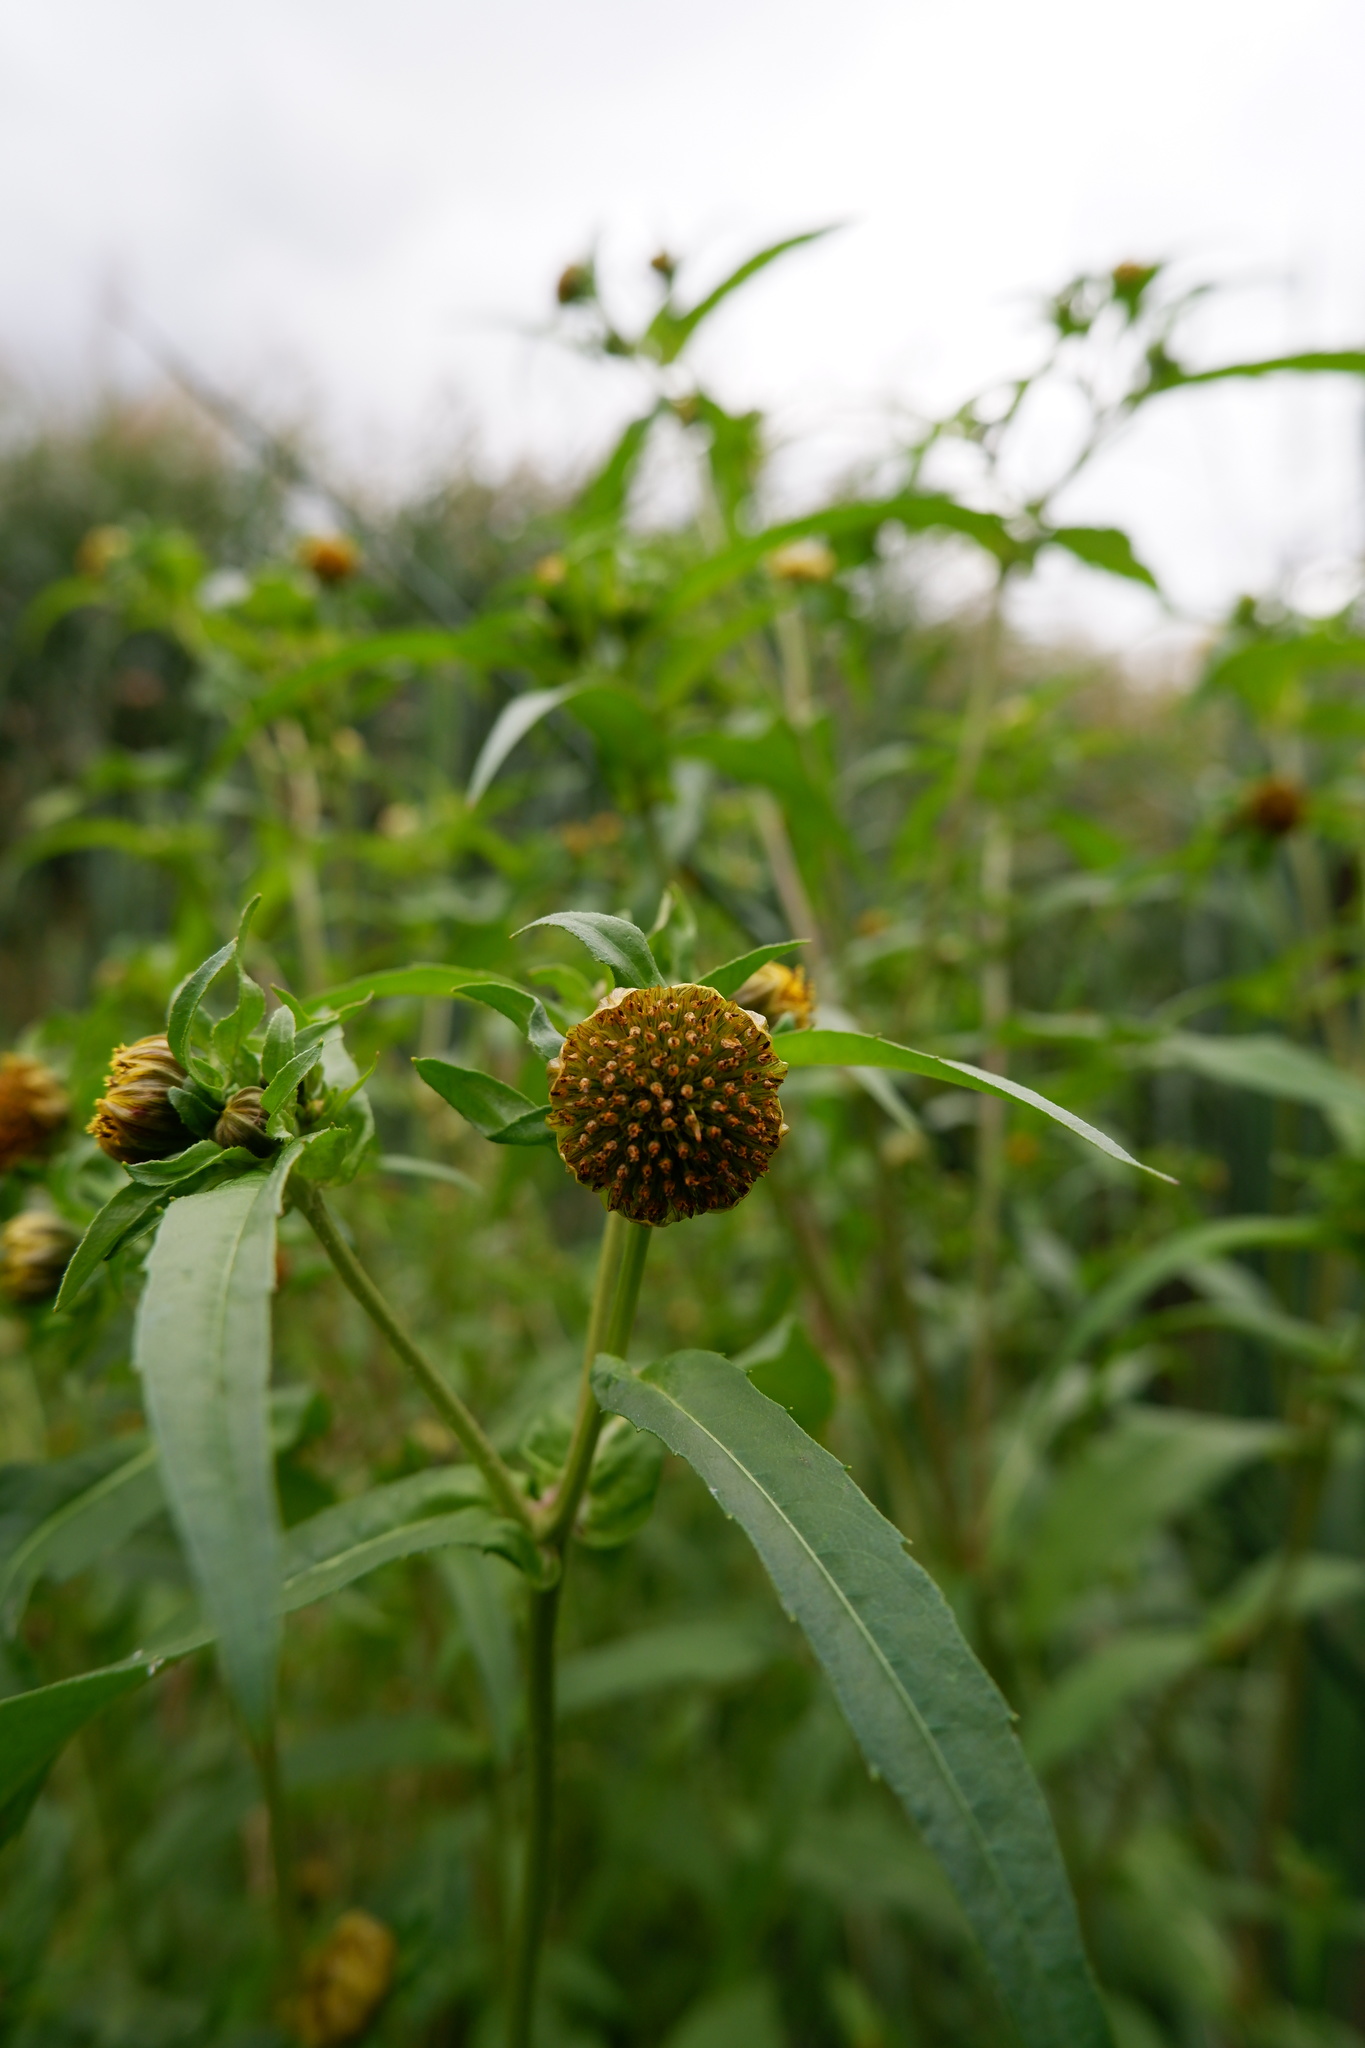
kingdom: Plantae
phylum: Tracheophyta
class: Magnoliopsida
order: Asterales
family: Asteraceae
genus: Bidens
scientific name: Bidens cernua
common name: Nodding bur-marigold
